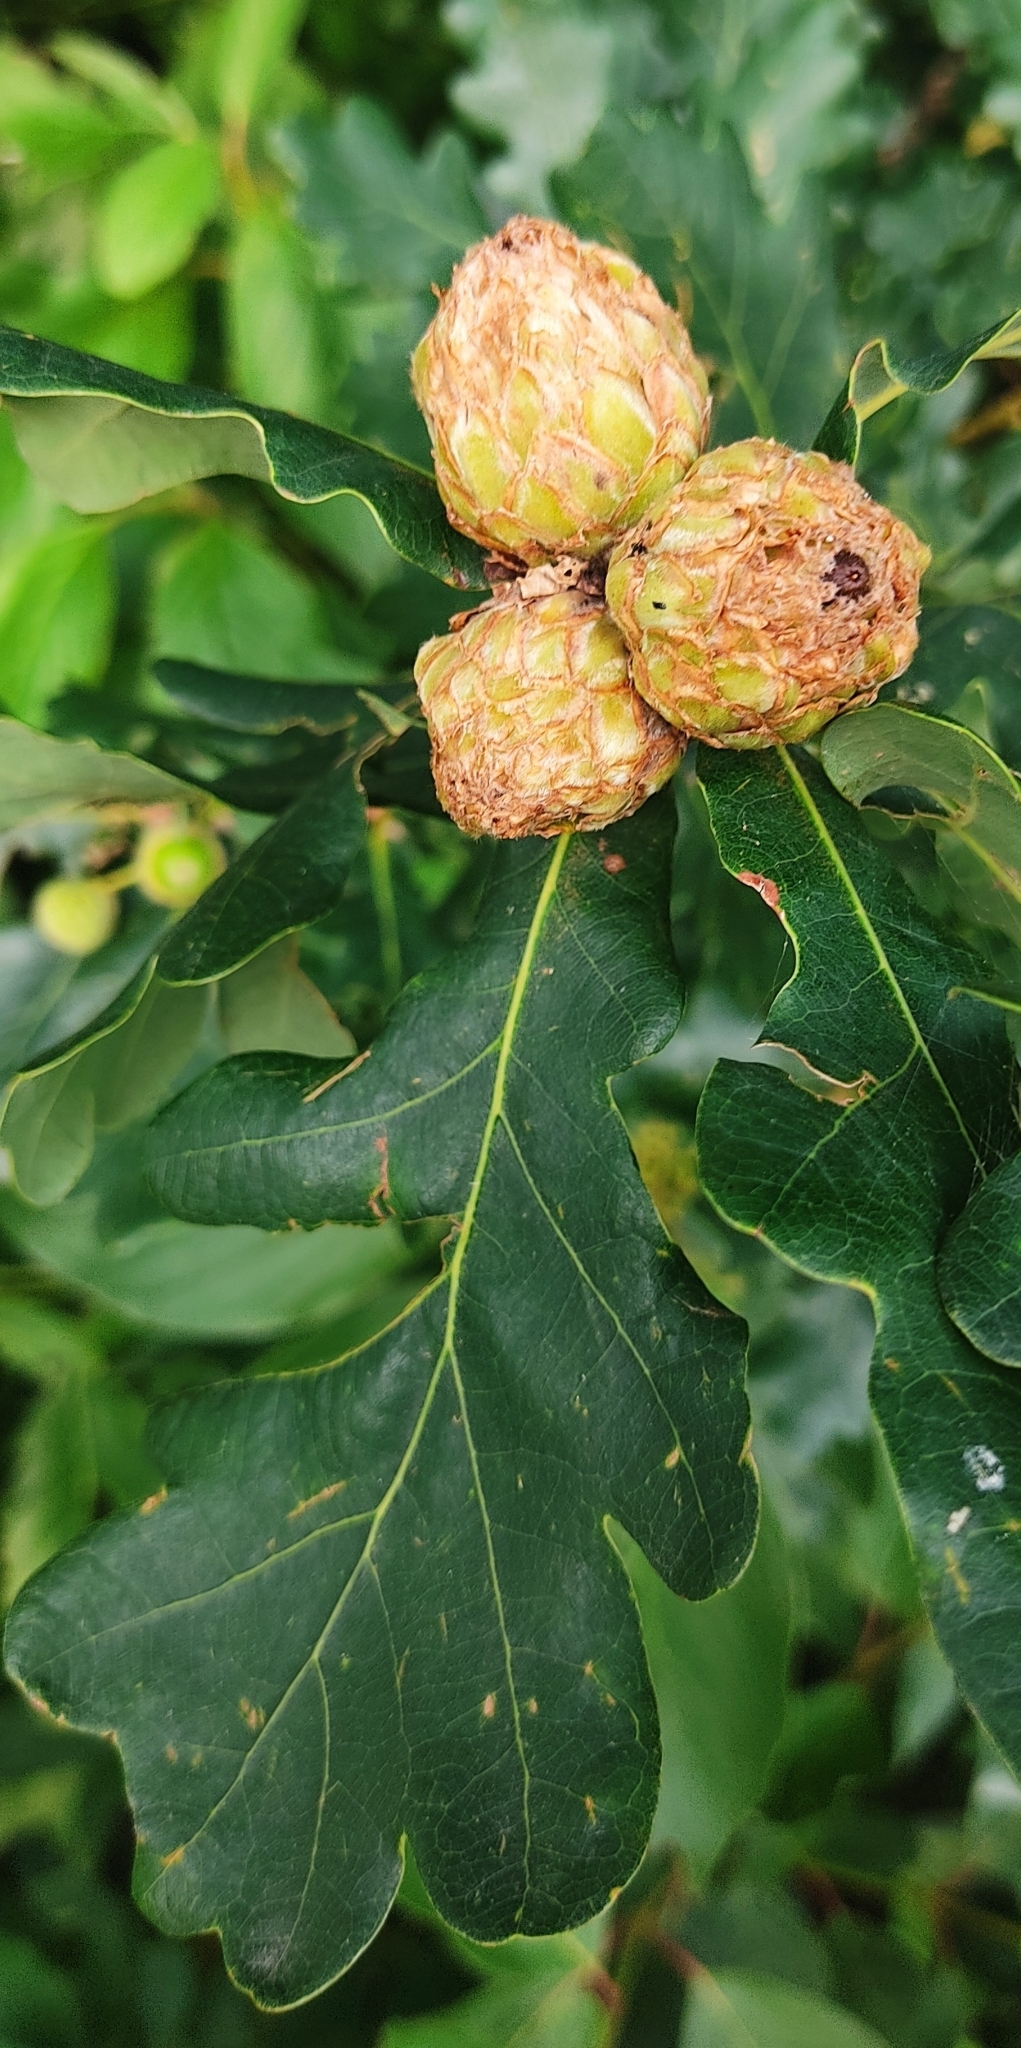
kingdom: Animalia
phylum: Arthropoda
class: Insecta
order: Hymenoptera
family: Cynipidae
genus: Andricus
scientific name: Andricus foecundatrix
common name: Artichoke gall
